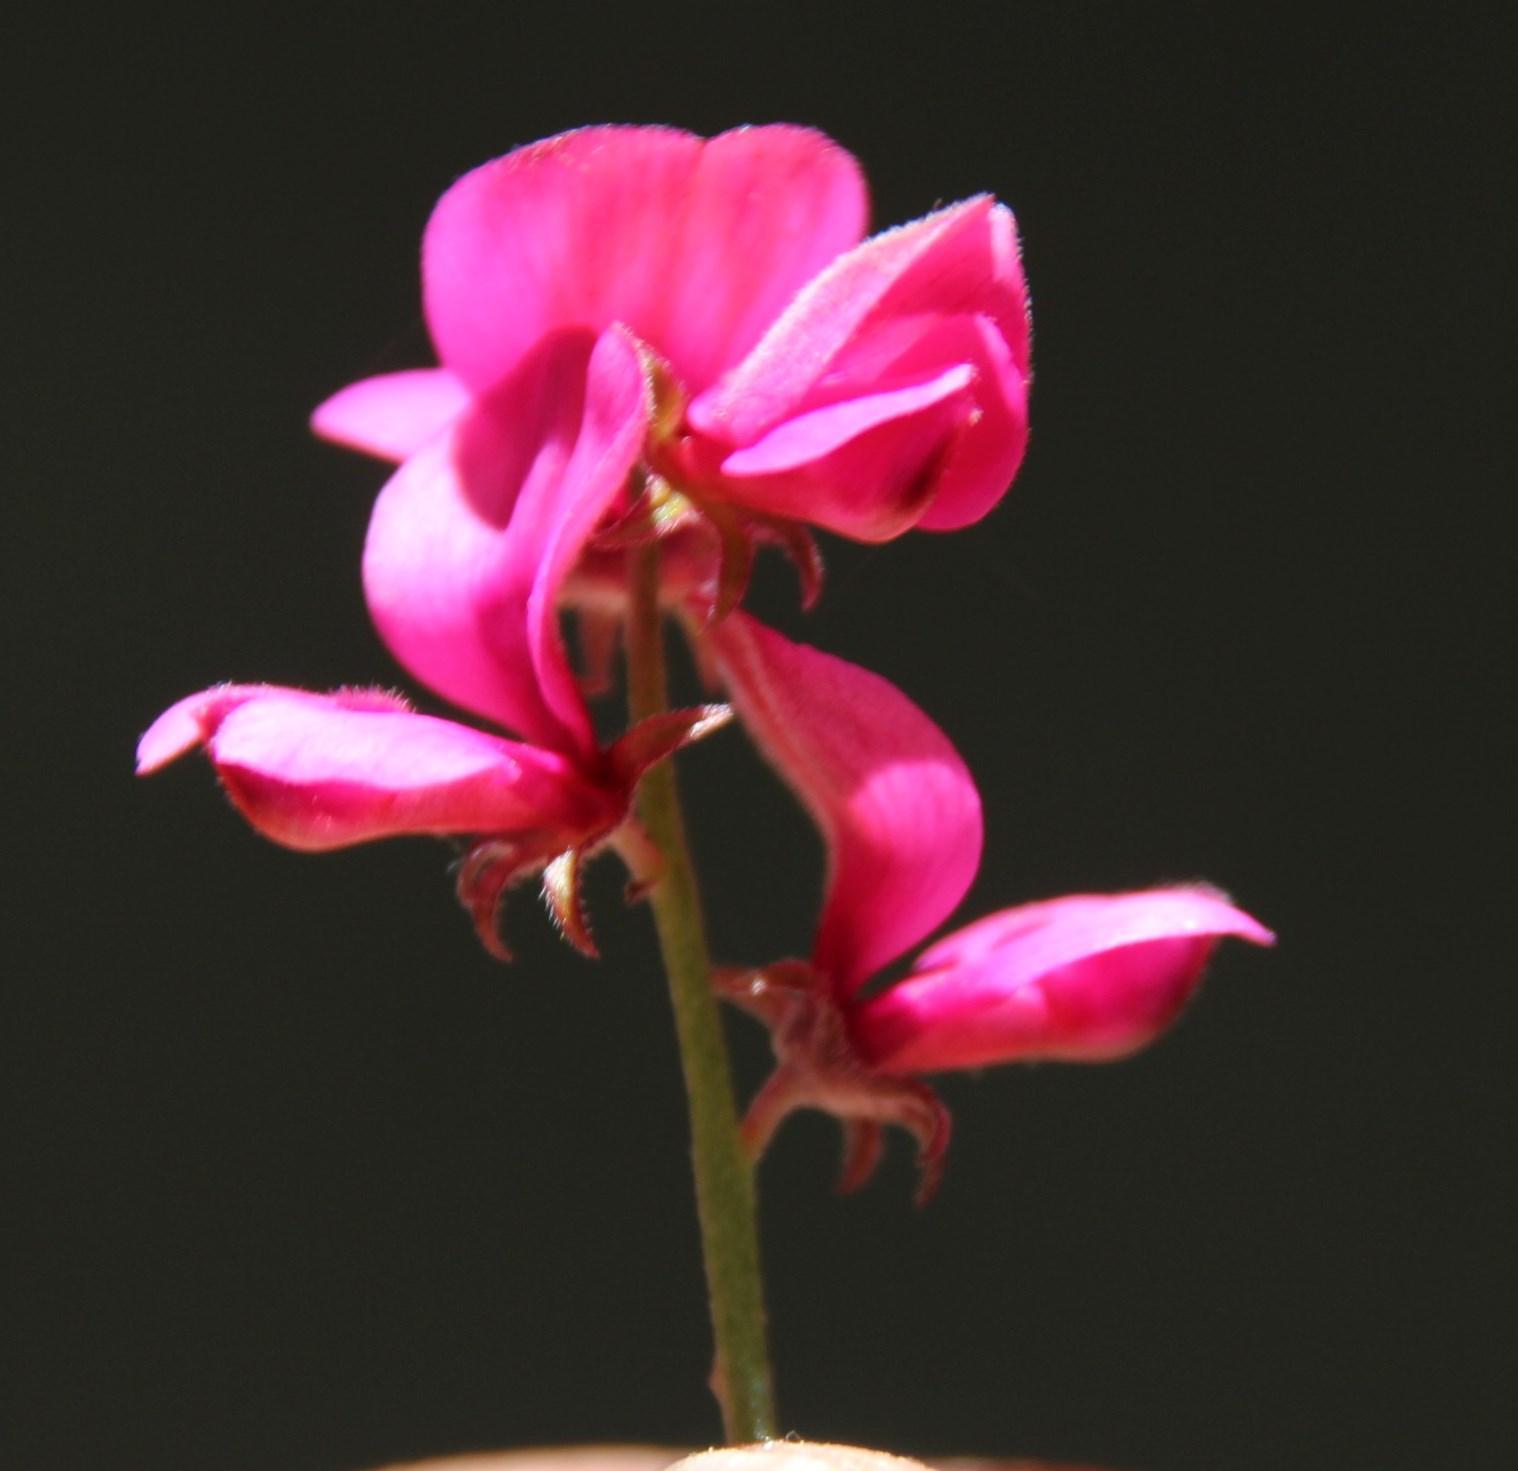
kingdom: Plantae
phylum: Tracheophyta
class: Magnoliopsida
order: Fabales
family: Fabaceae
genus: Indigofera
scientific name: Indigofera meyeriana
